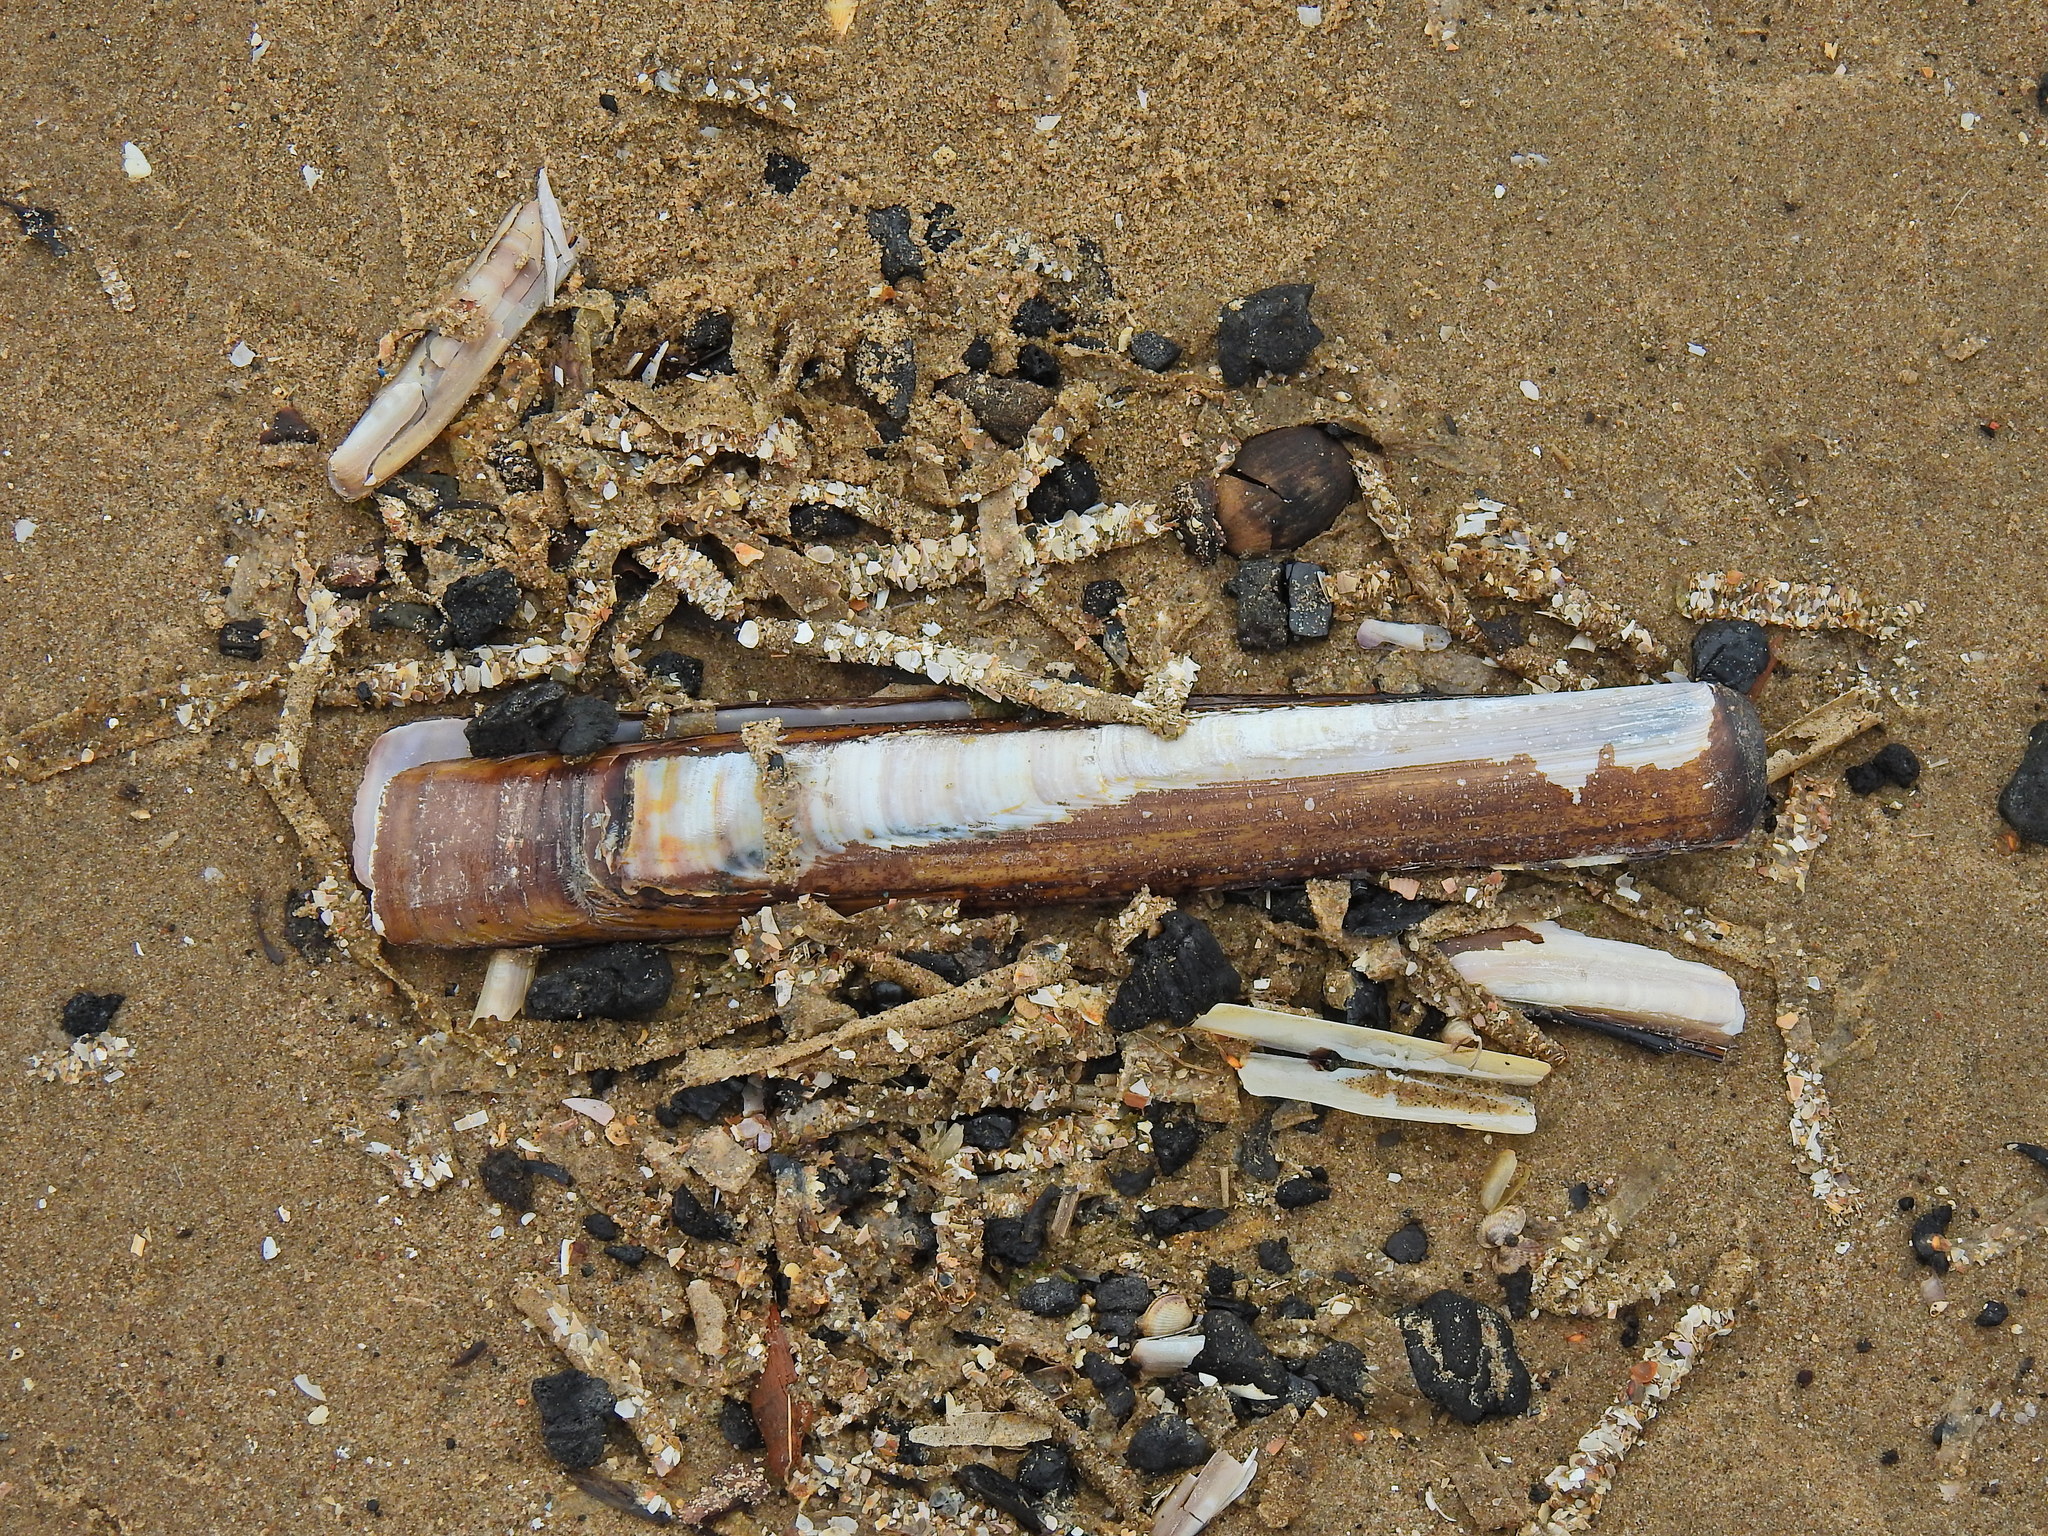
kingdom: Animalia
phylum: Mollusca
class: Bivalvia
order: Adapedonta
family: Pharidae
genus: Ensis
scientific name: Ensis siliqua
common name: Pod razor shell
